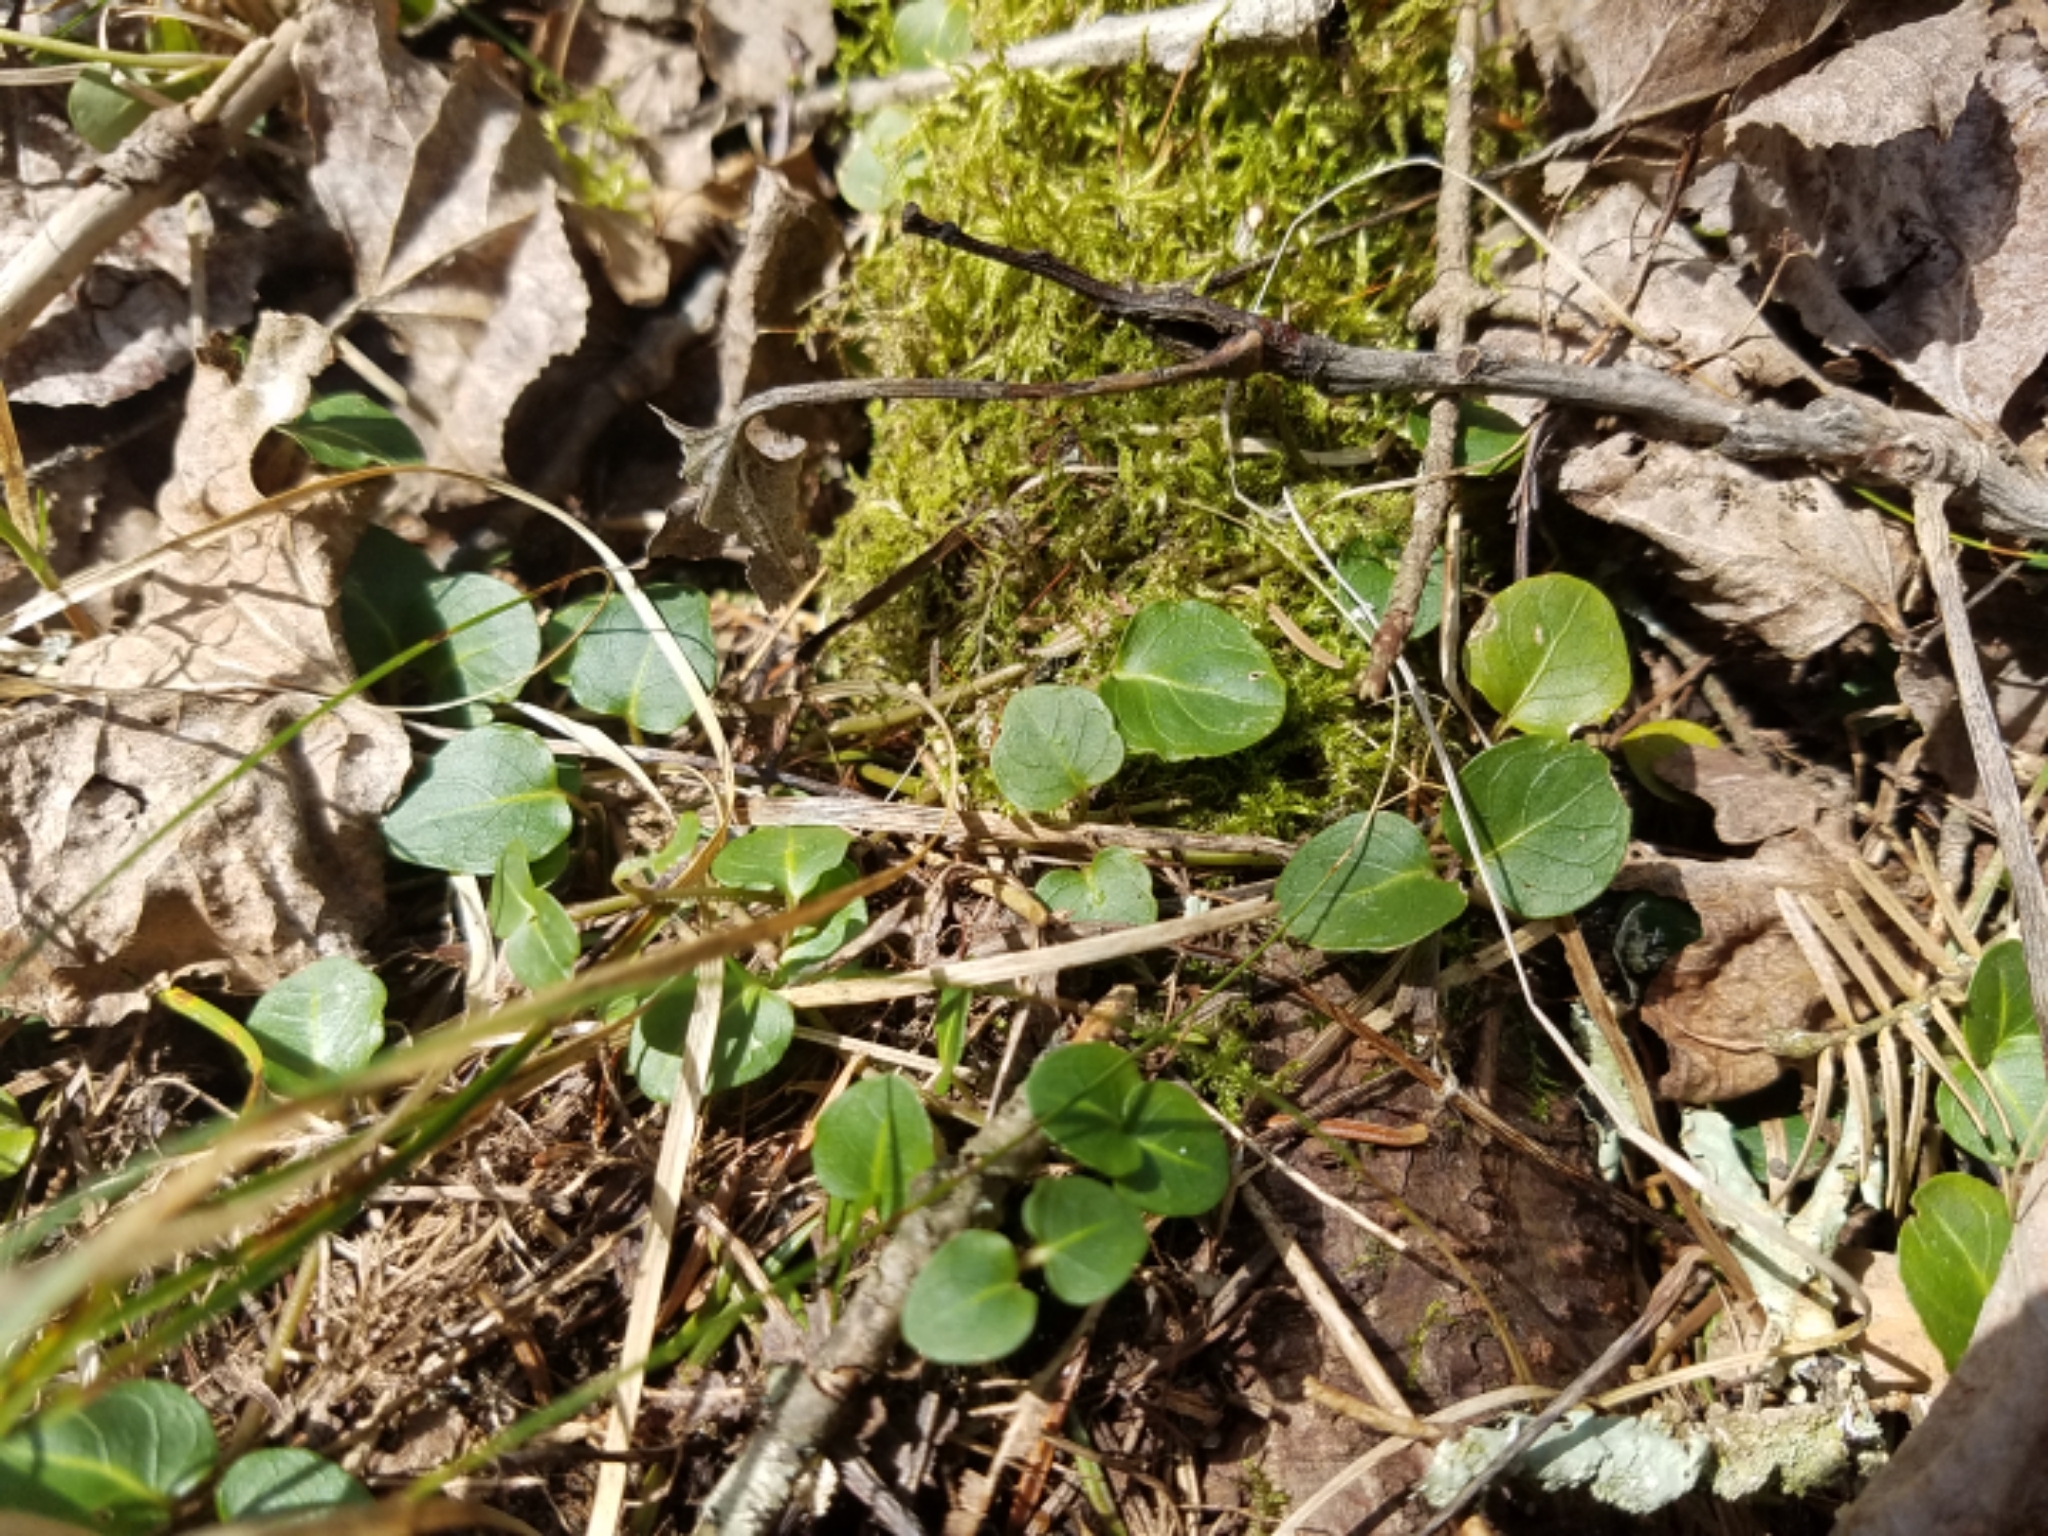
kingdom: Plantae
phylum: Tracheophyta
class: Magnoliopsida
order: Gentianales
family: Rubiaceae
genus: Mitchella
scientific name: Mitchella repens
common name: Partridge-berry
